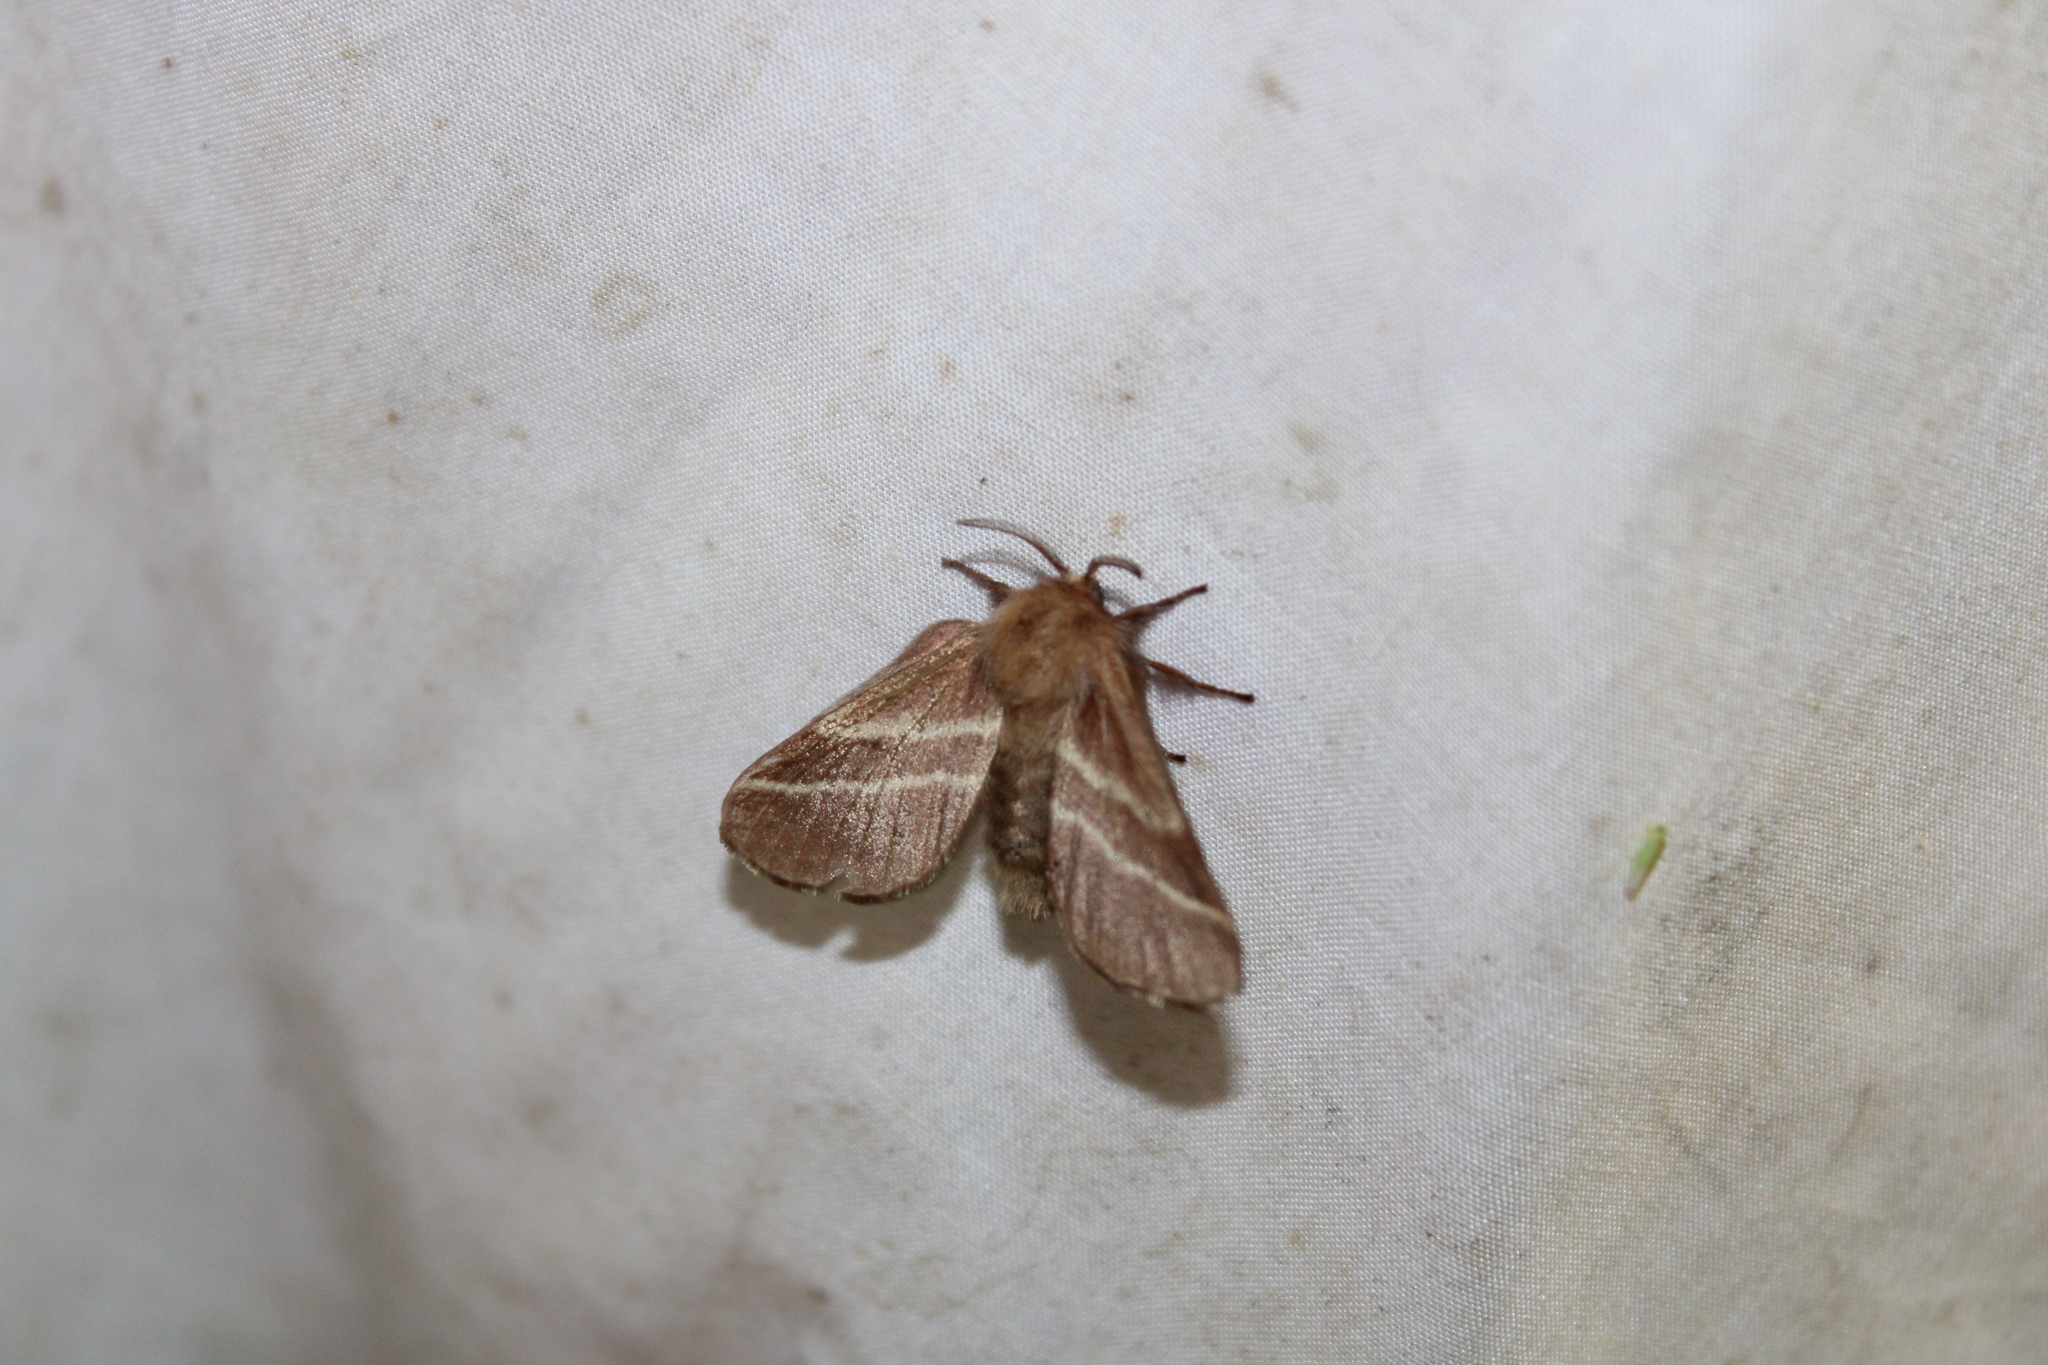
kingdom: Animalia
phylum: Arthropoda
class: Insecta
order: Lepidoptera
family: Lasiocampidae
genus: Malacosoma
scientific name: Malacosoma americana
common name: Eastern tent caterpillar moth
